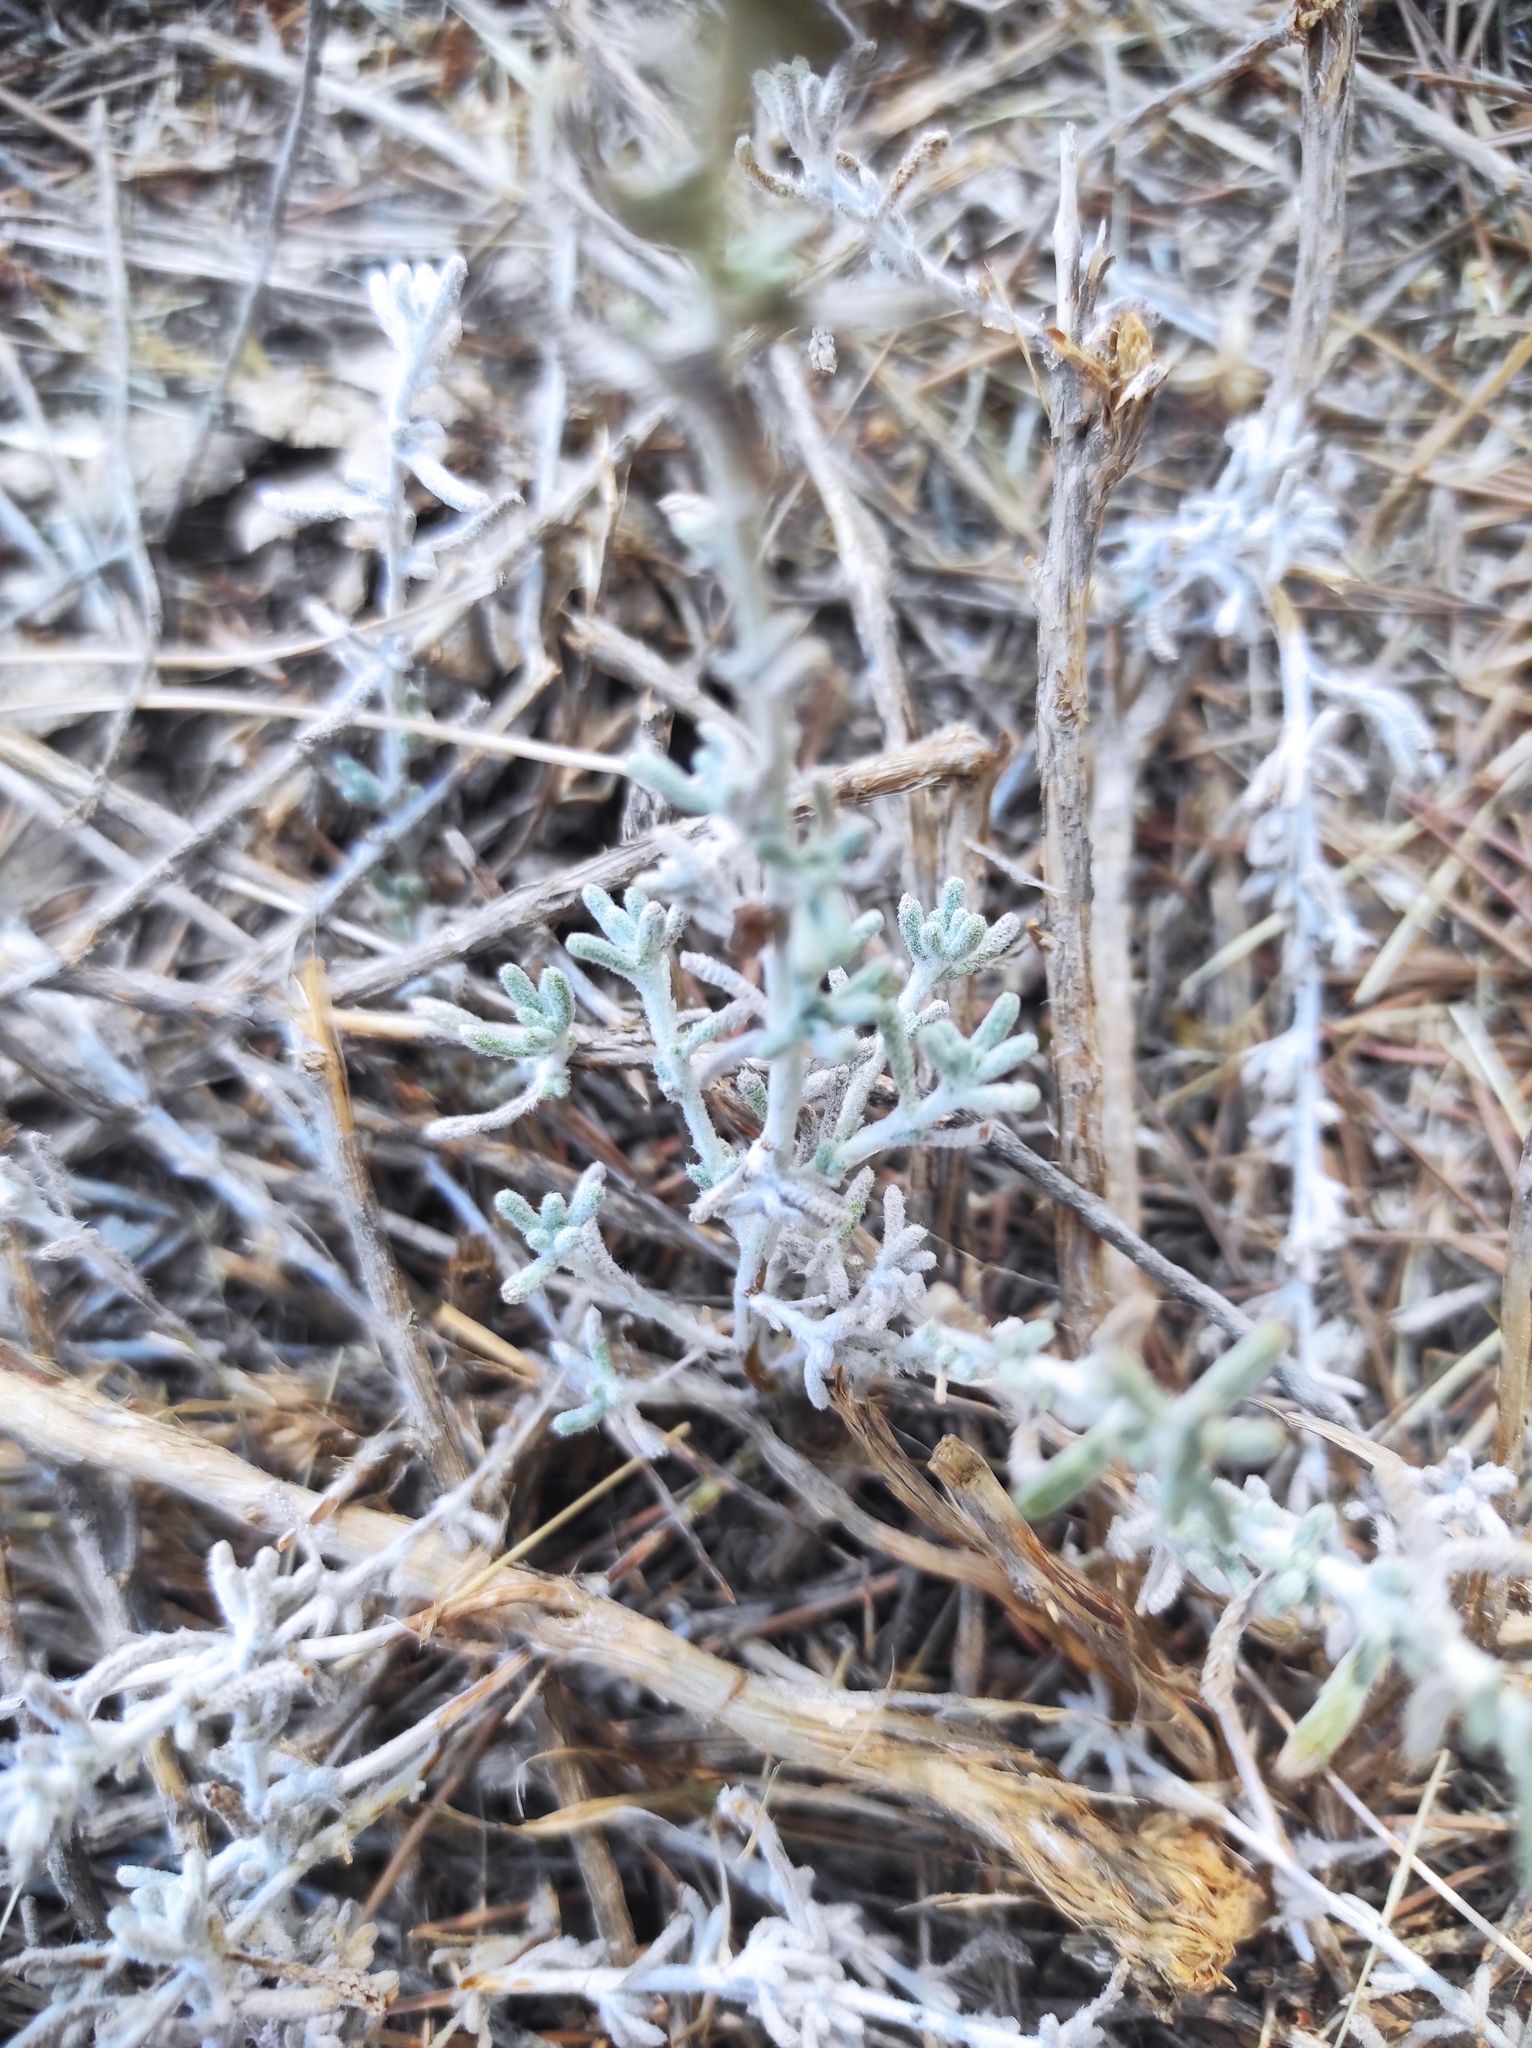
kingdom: Plantae
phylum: Tracheophyta
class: Magnoliopsida
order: Lamiales
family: Lamiaceae
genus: Teucrium
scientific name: Teucrium capitatum
